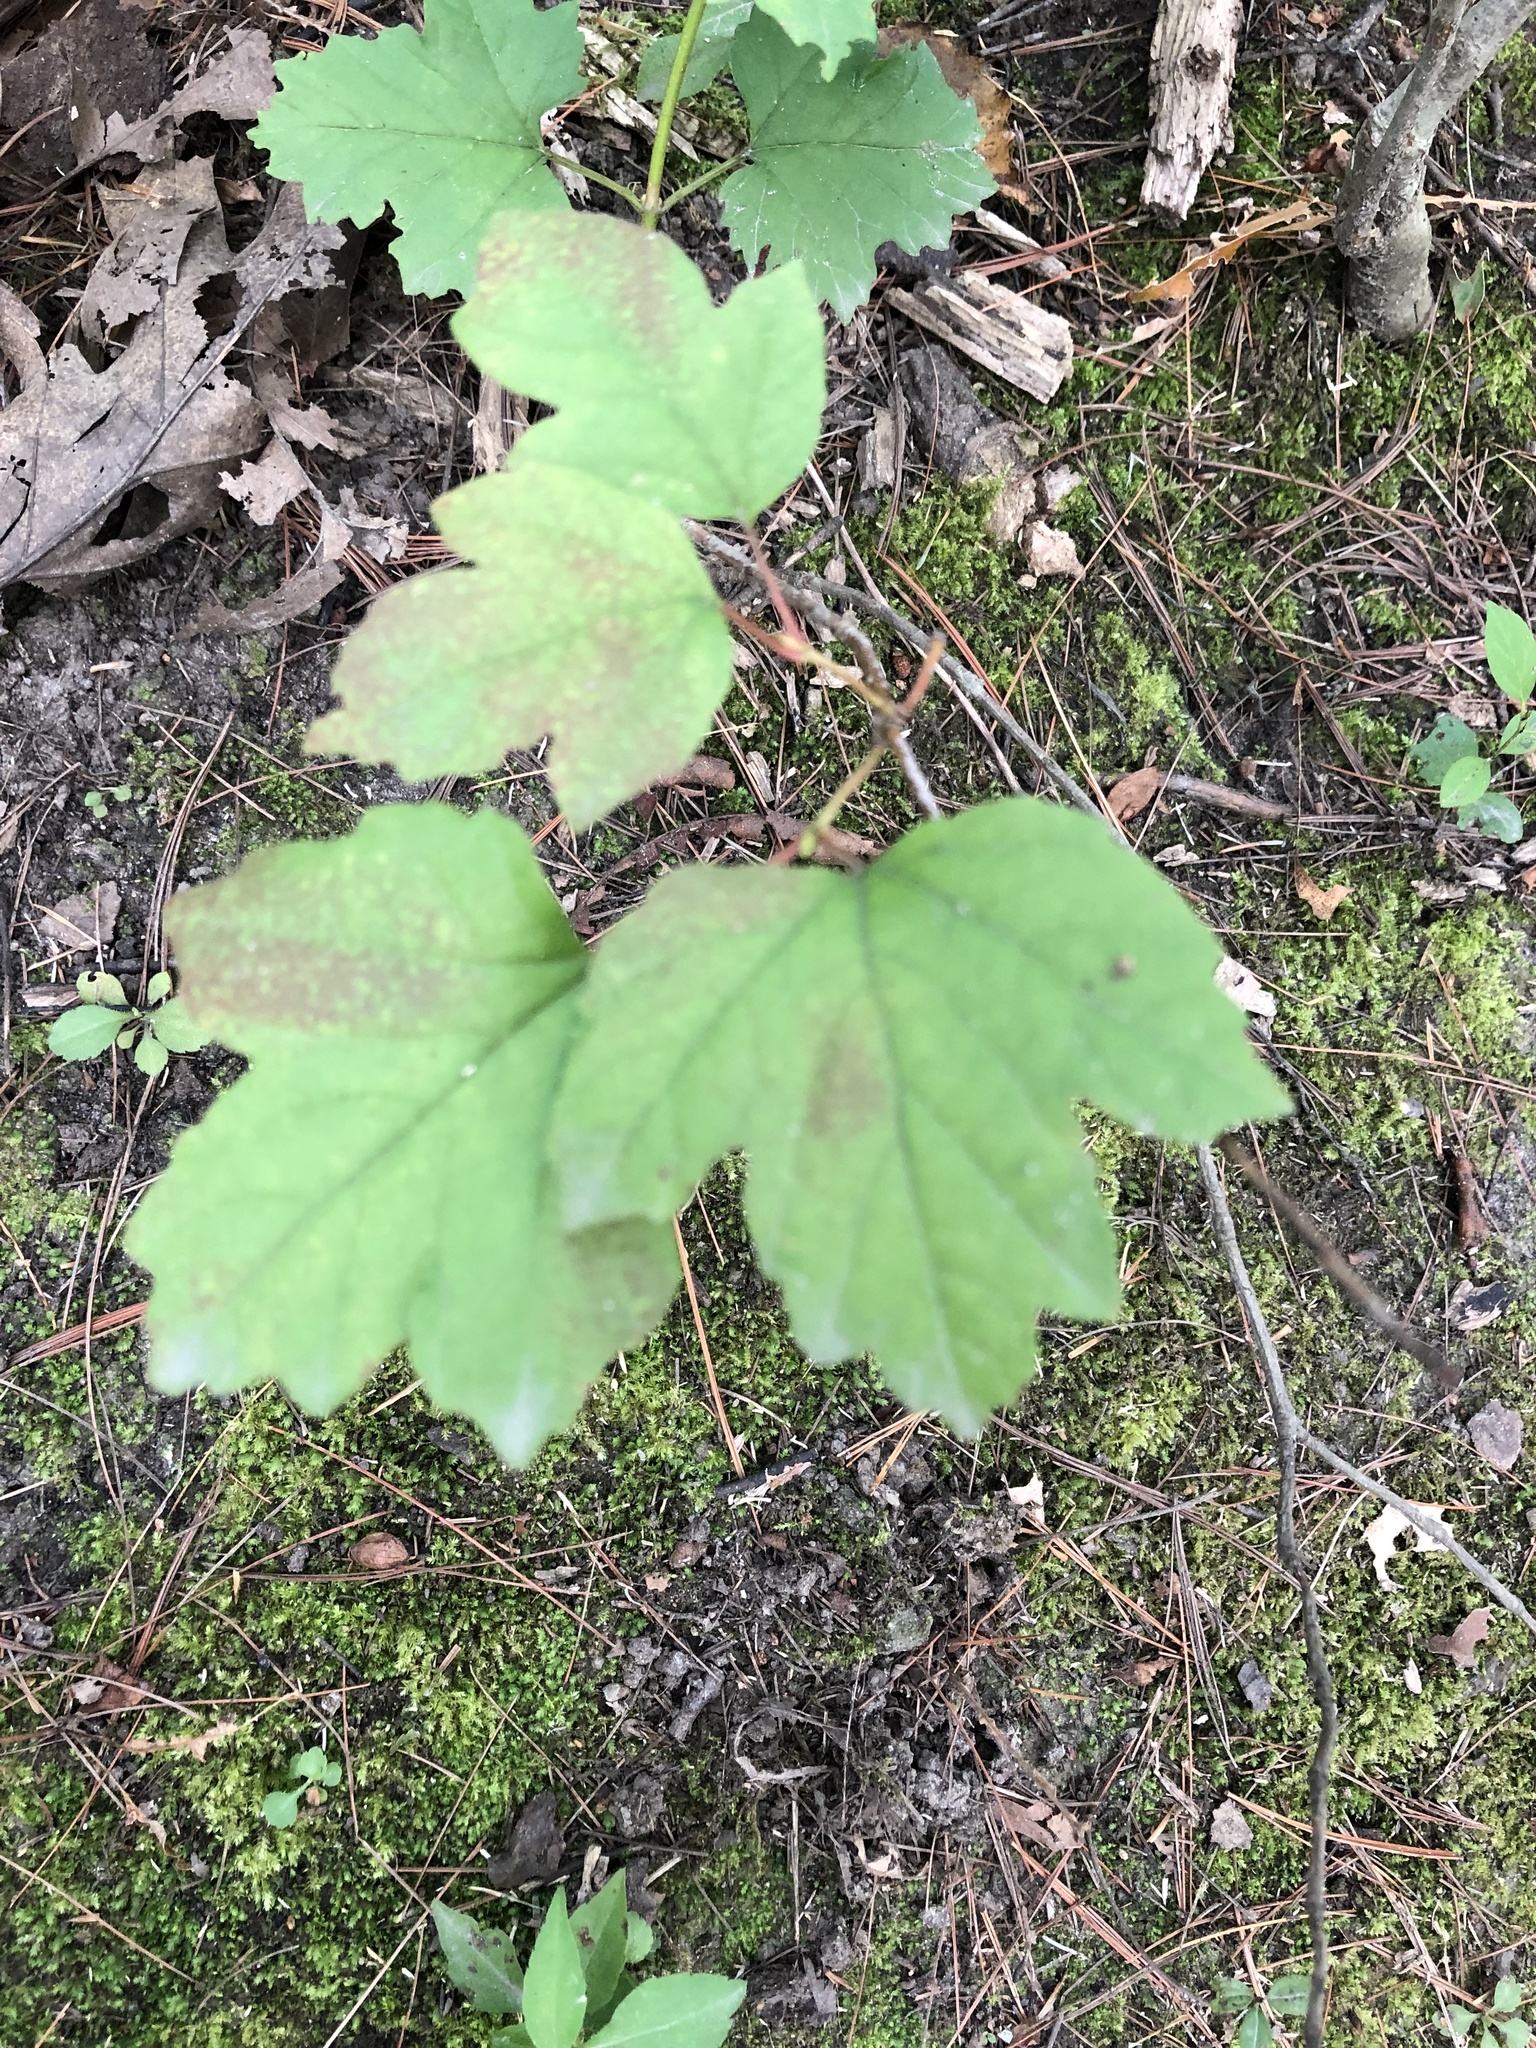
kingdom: Plantae
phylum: Tracheophyta
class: Magnoliopsida
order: Dipsacales
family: Viburnaceae
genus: Viburnum
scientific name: Viburnum opulus
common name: Guelder-rose
